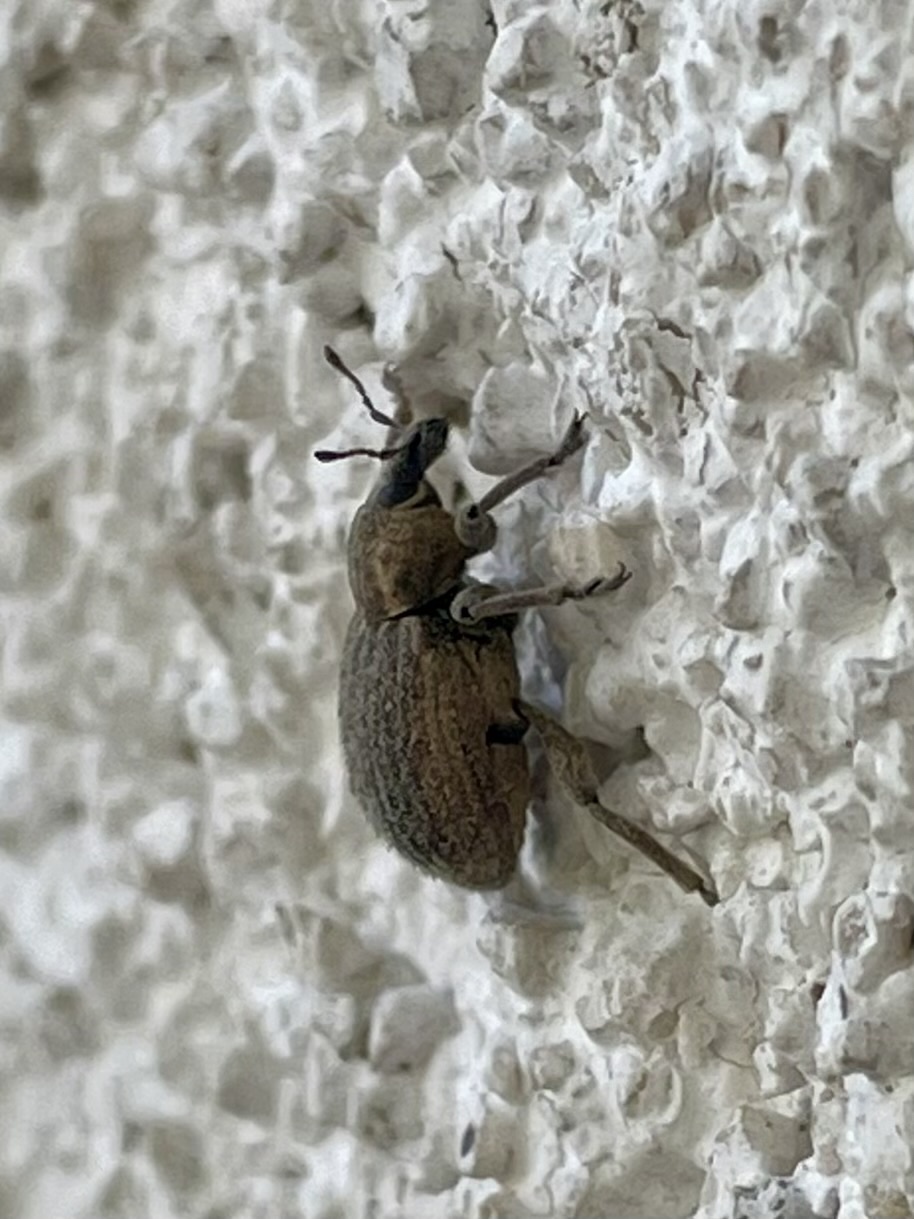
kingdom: Animalia
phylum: Arthropoda
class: Insecta
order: Coleoptera
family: Curculionidae
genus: Brachypera
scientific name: Brachypera zoilus
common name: Clover leaf weevil
